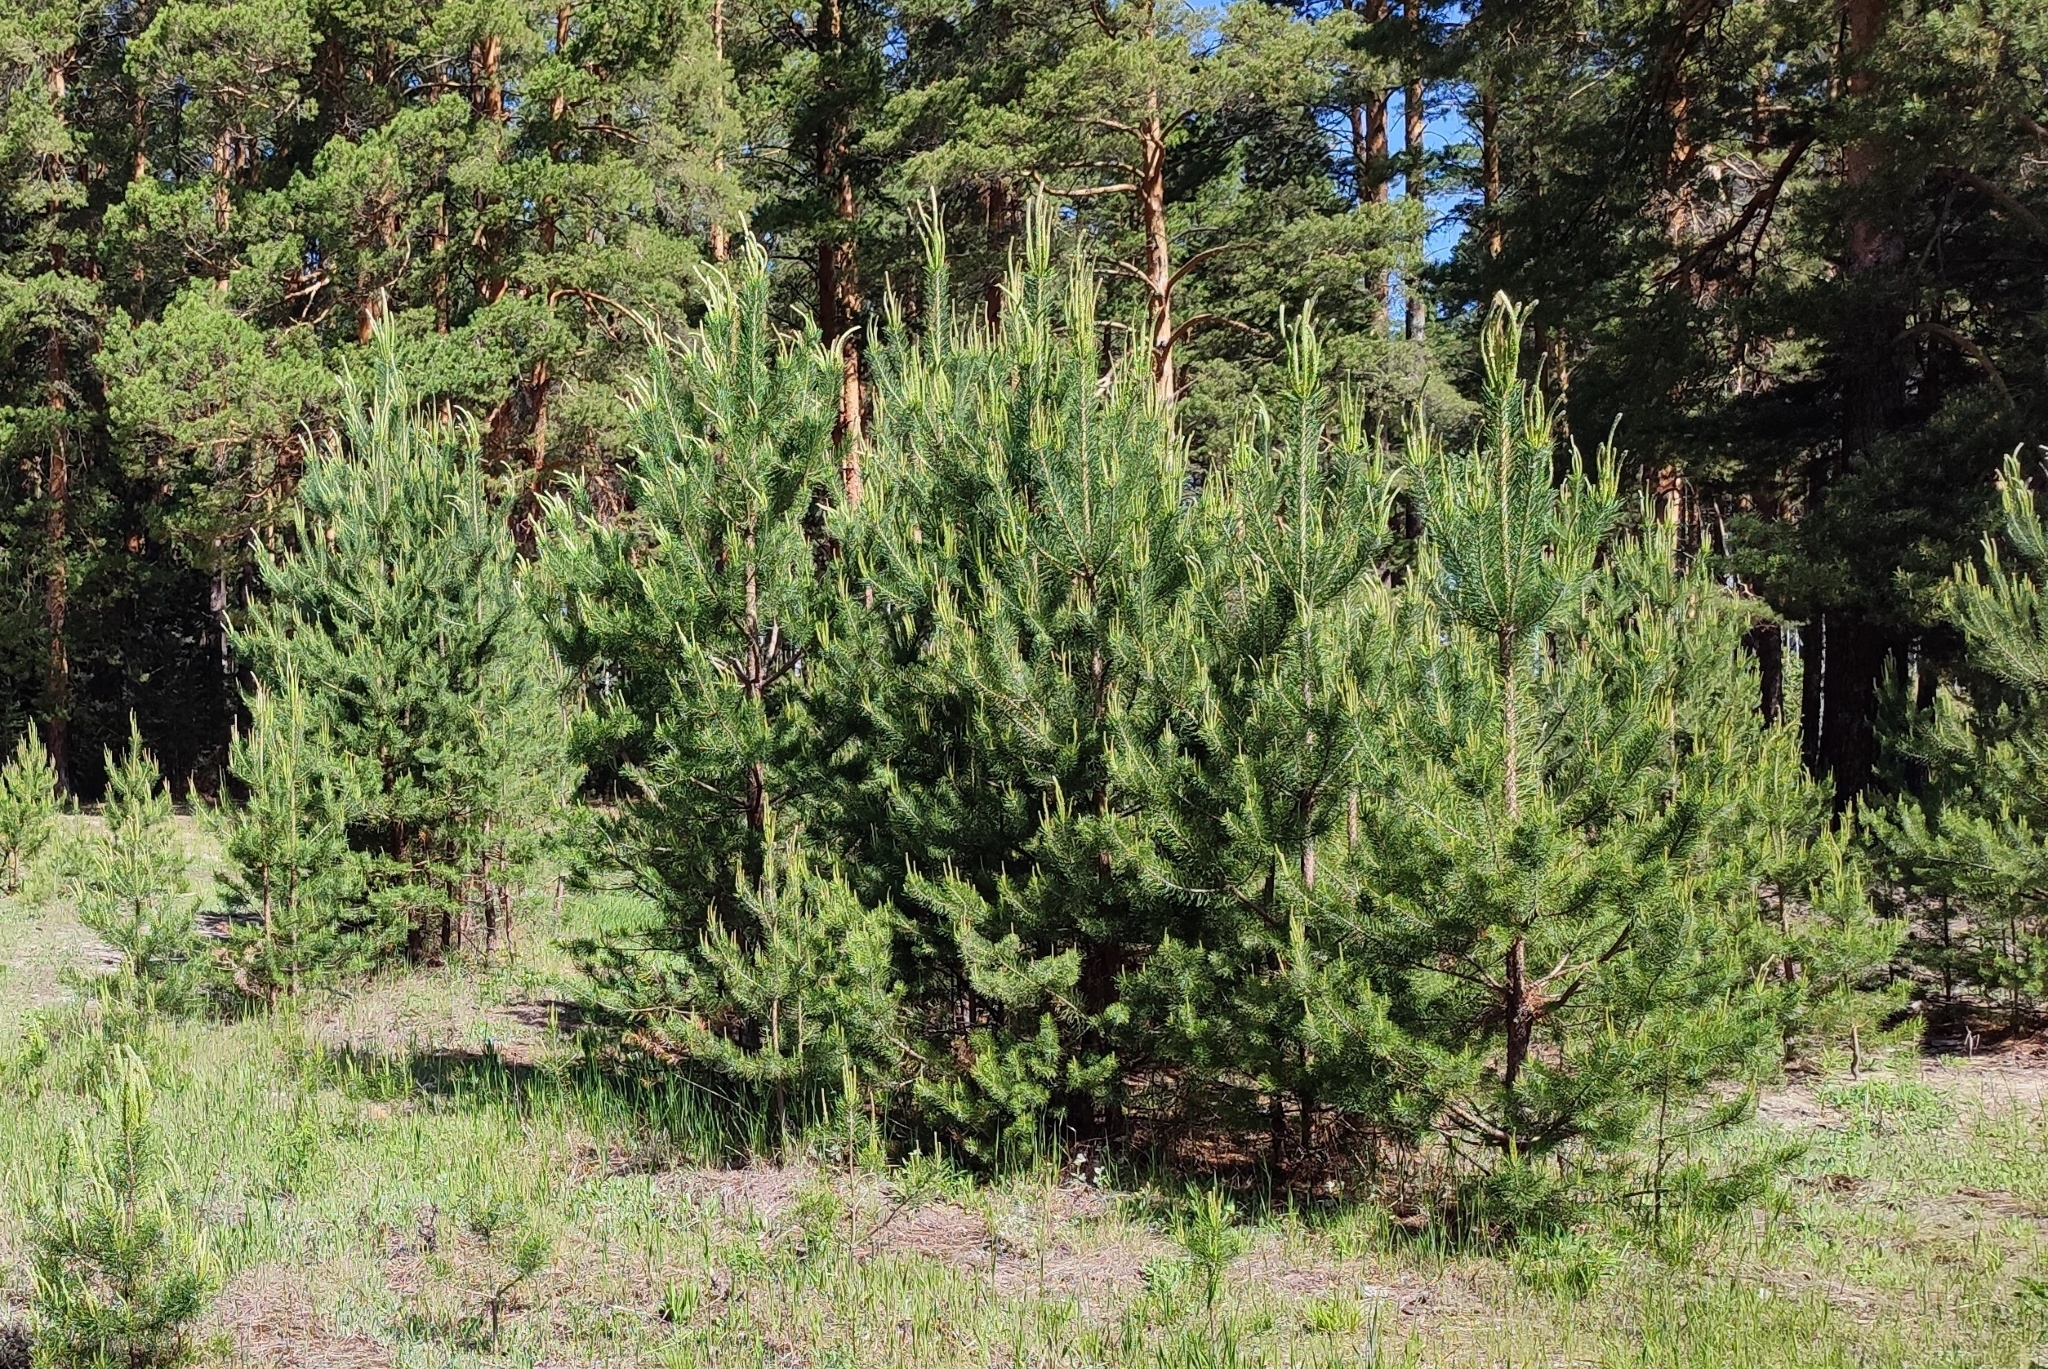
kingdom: Plantae
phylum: Tracheophyta
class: Pinopsida
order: Pinales
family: Pinaceae
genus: Pinus
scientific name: Pinus sylvestris
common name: Scots pine
